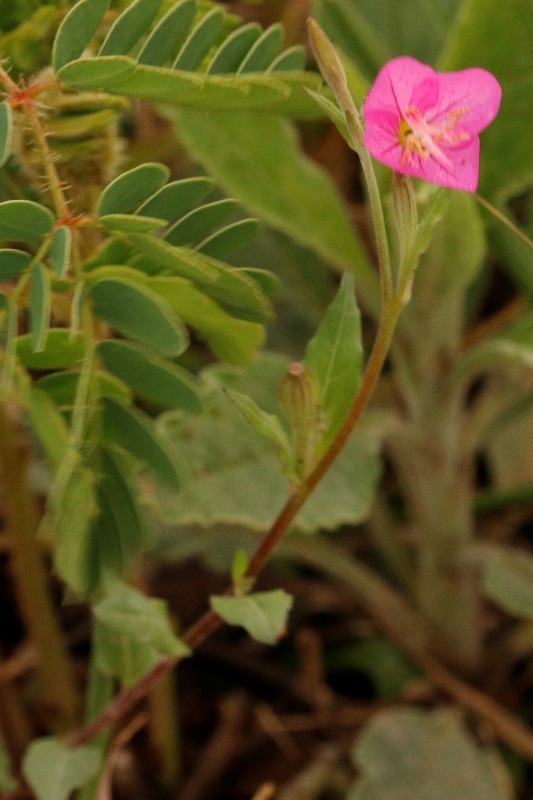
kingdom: Plantae
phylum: Tracheophyta
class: Magnoliopsida
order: Myrtales
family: Onagraceae
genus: Oenothera
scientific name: Oenothera rosea
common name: Rosy evening-primrose
